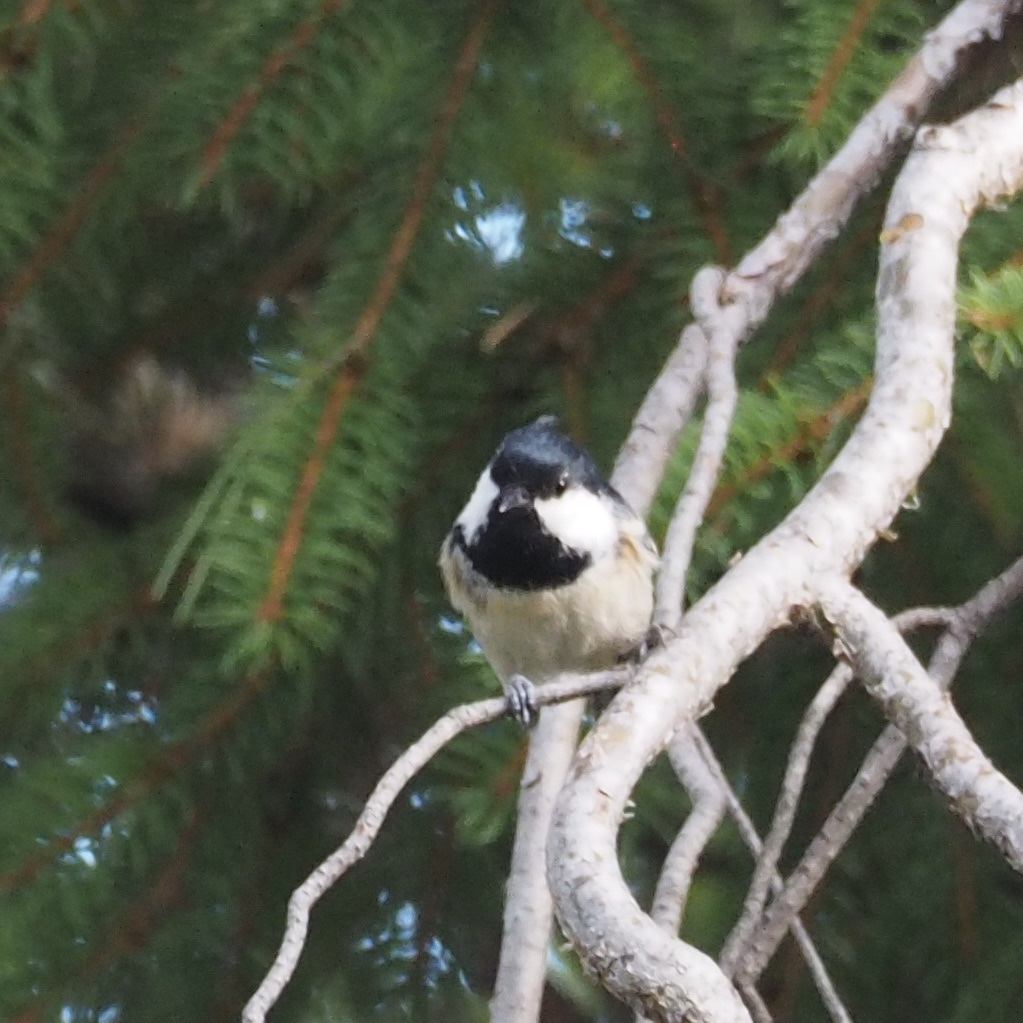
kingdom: Animalia
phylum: Chordata
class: Aves
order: Passeriformes
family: Paridae
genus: Periparus
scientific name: Periparus ater
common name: Coal tit
